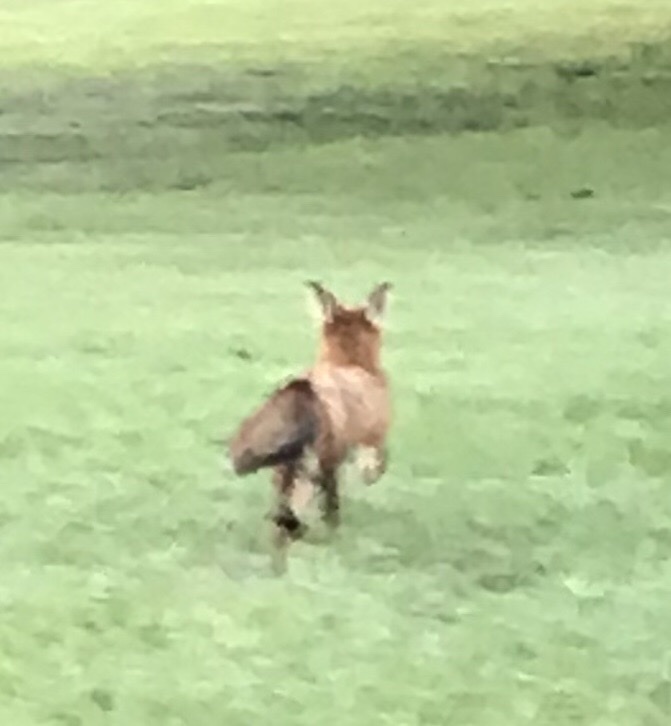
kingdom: Animalia
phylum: Chordata
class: Mammalia
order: Carnivora
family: Canidae
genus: Vulpes
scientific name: Vulpes vulpes
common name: Red fox
